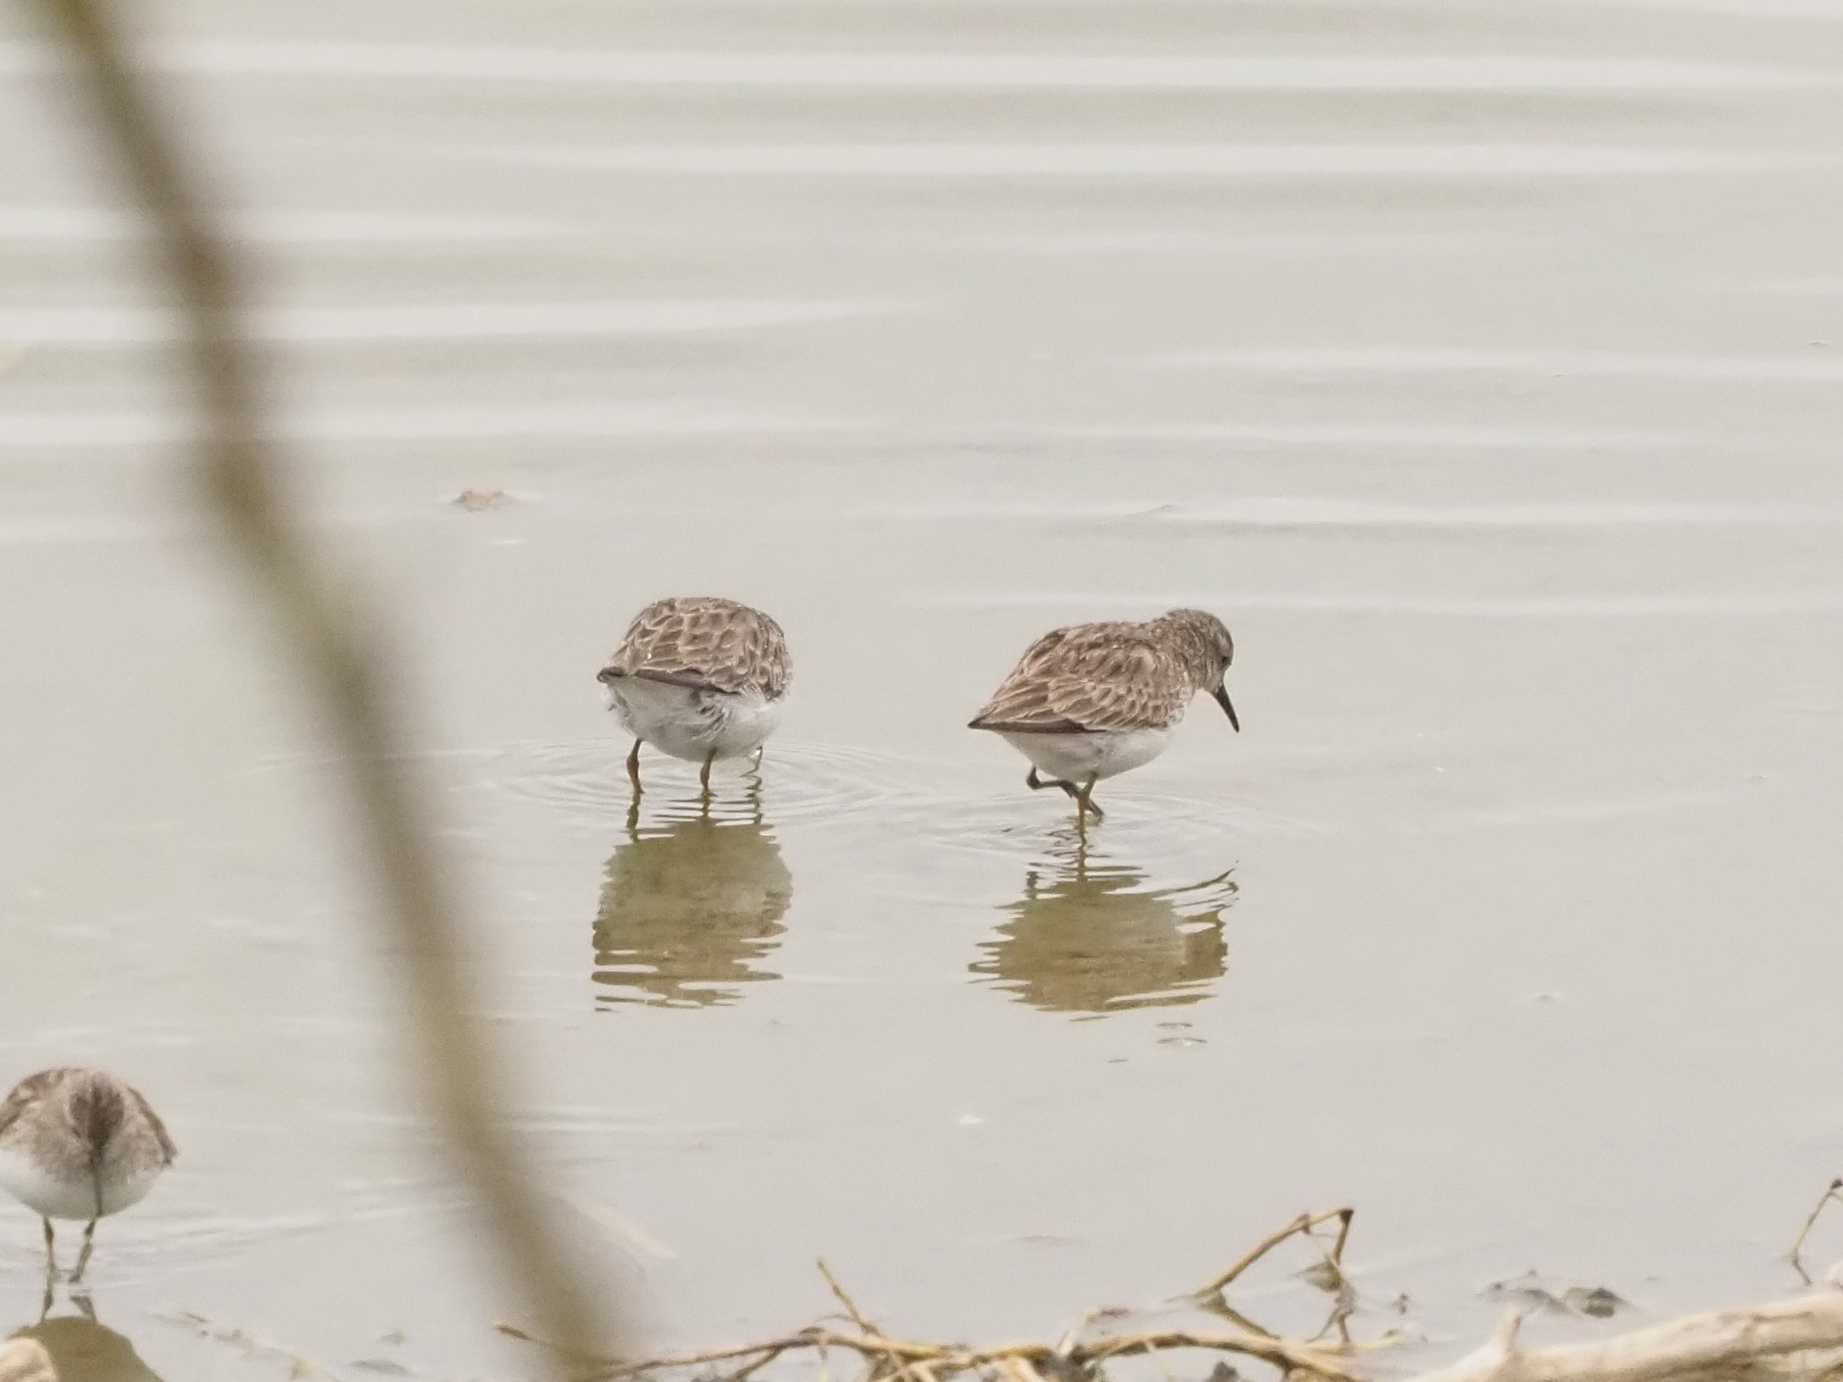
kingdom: Animalia
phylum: Chordata
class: Aves
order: Charadriiformes
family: Scolopacidae
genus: Calidris
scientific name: Calidris minutilla
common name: Least sandpiper
